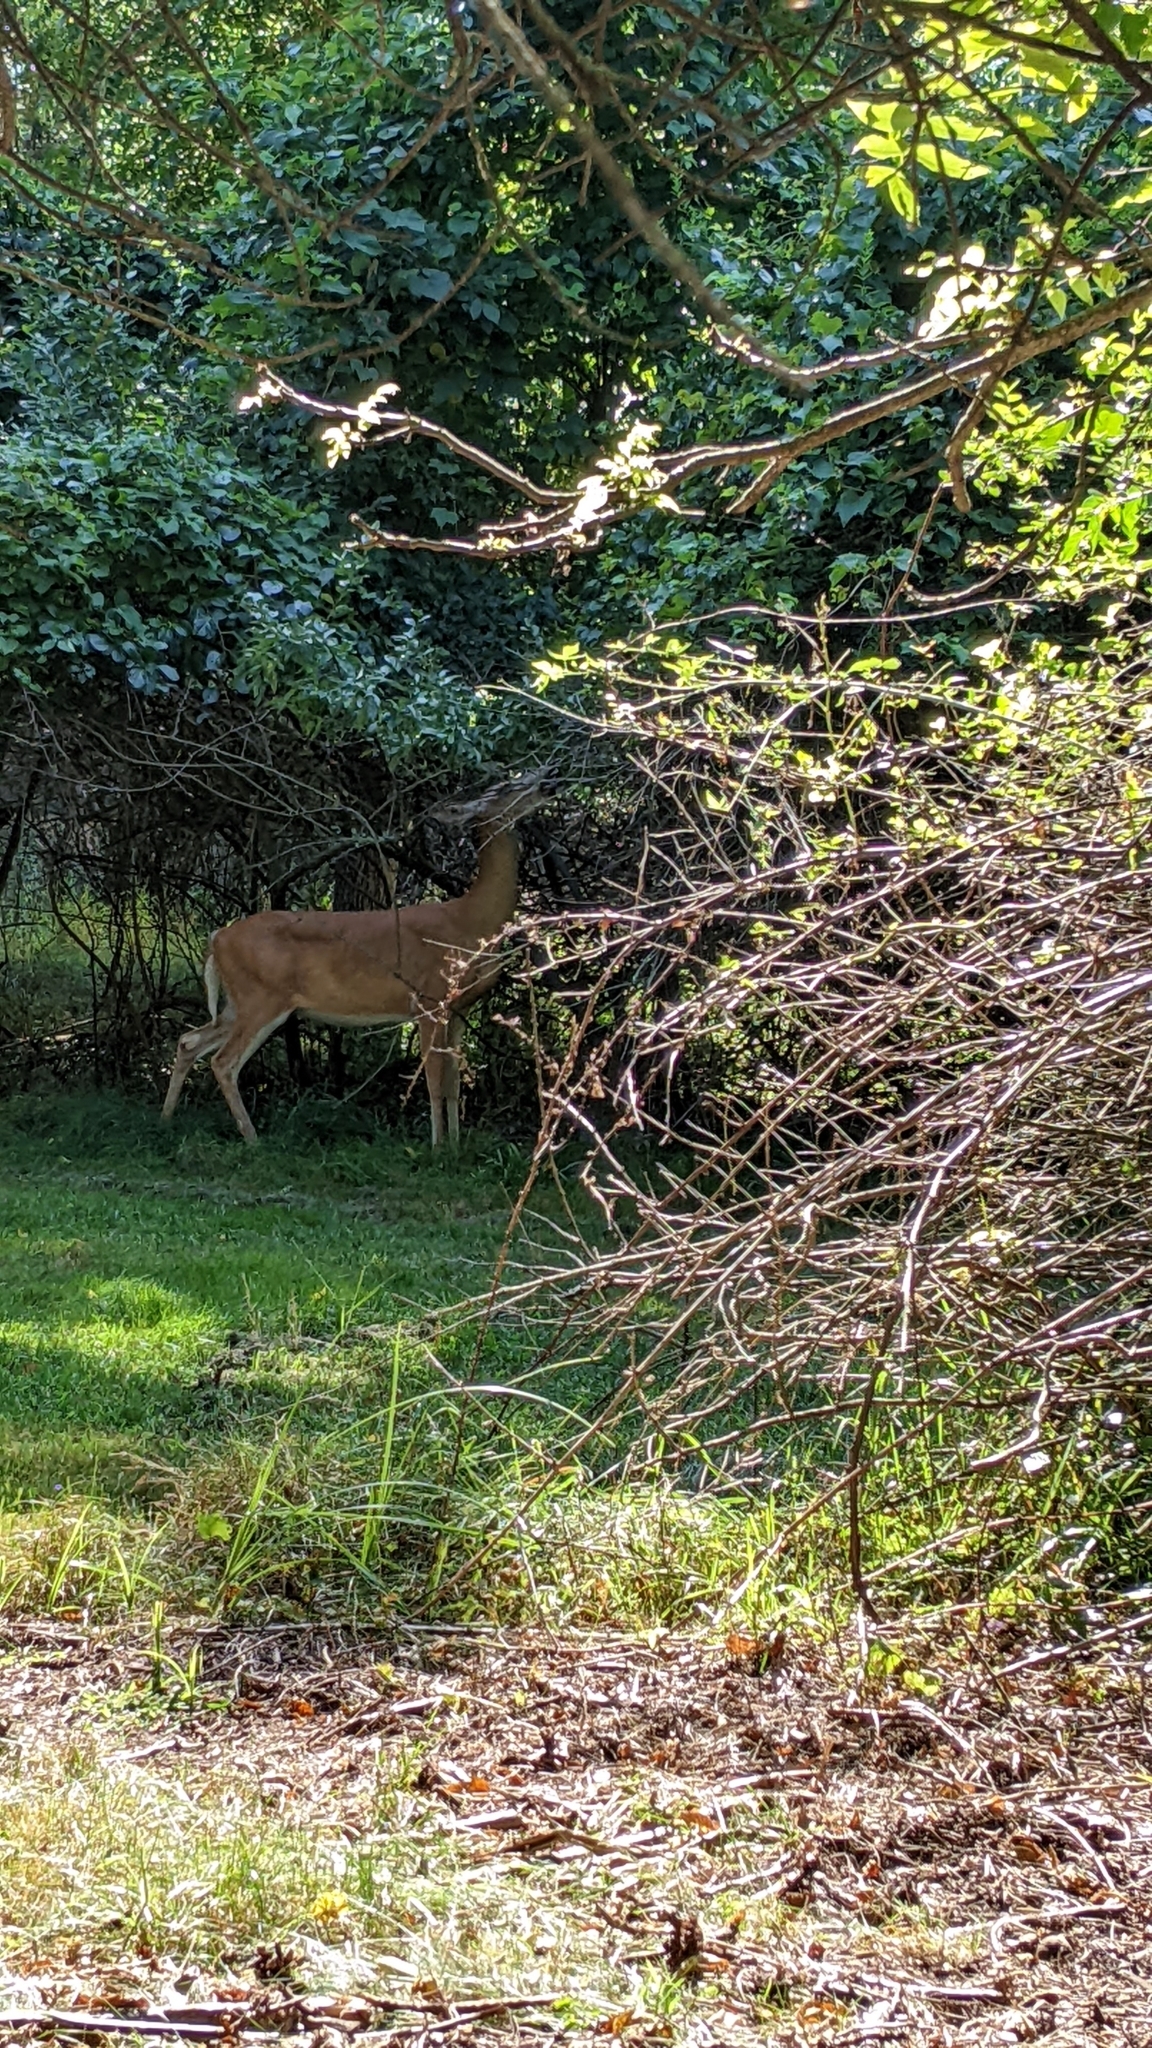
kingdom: Animalia
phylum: Chordata
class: Mammalia
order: Artiodactyla
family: Cervidae
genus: Odocoileus
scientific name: Odocoileus virginianus
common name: White-tailed deer
